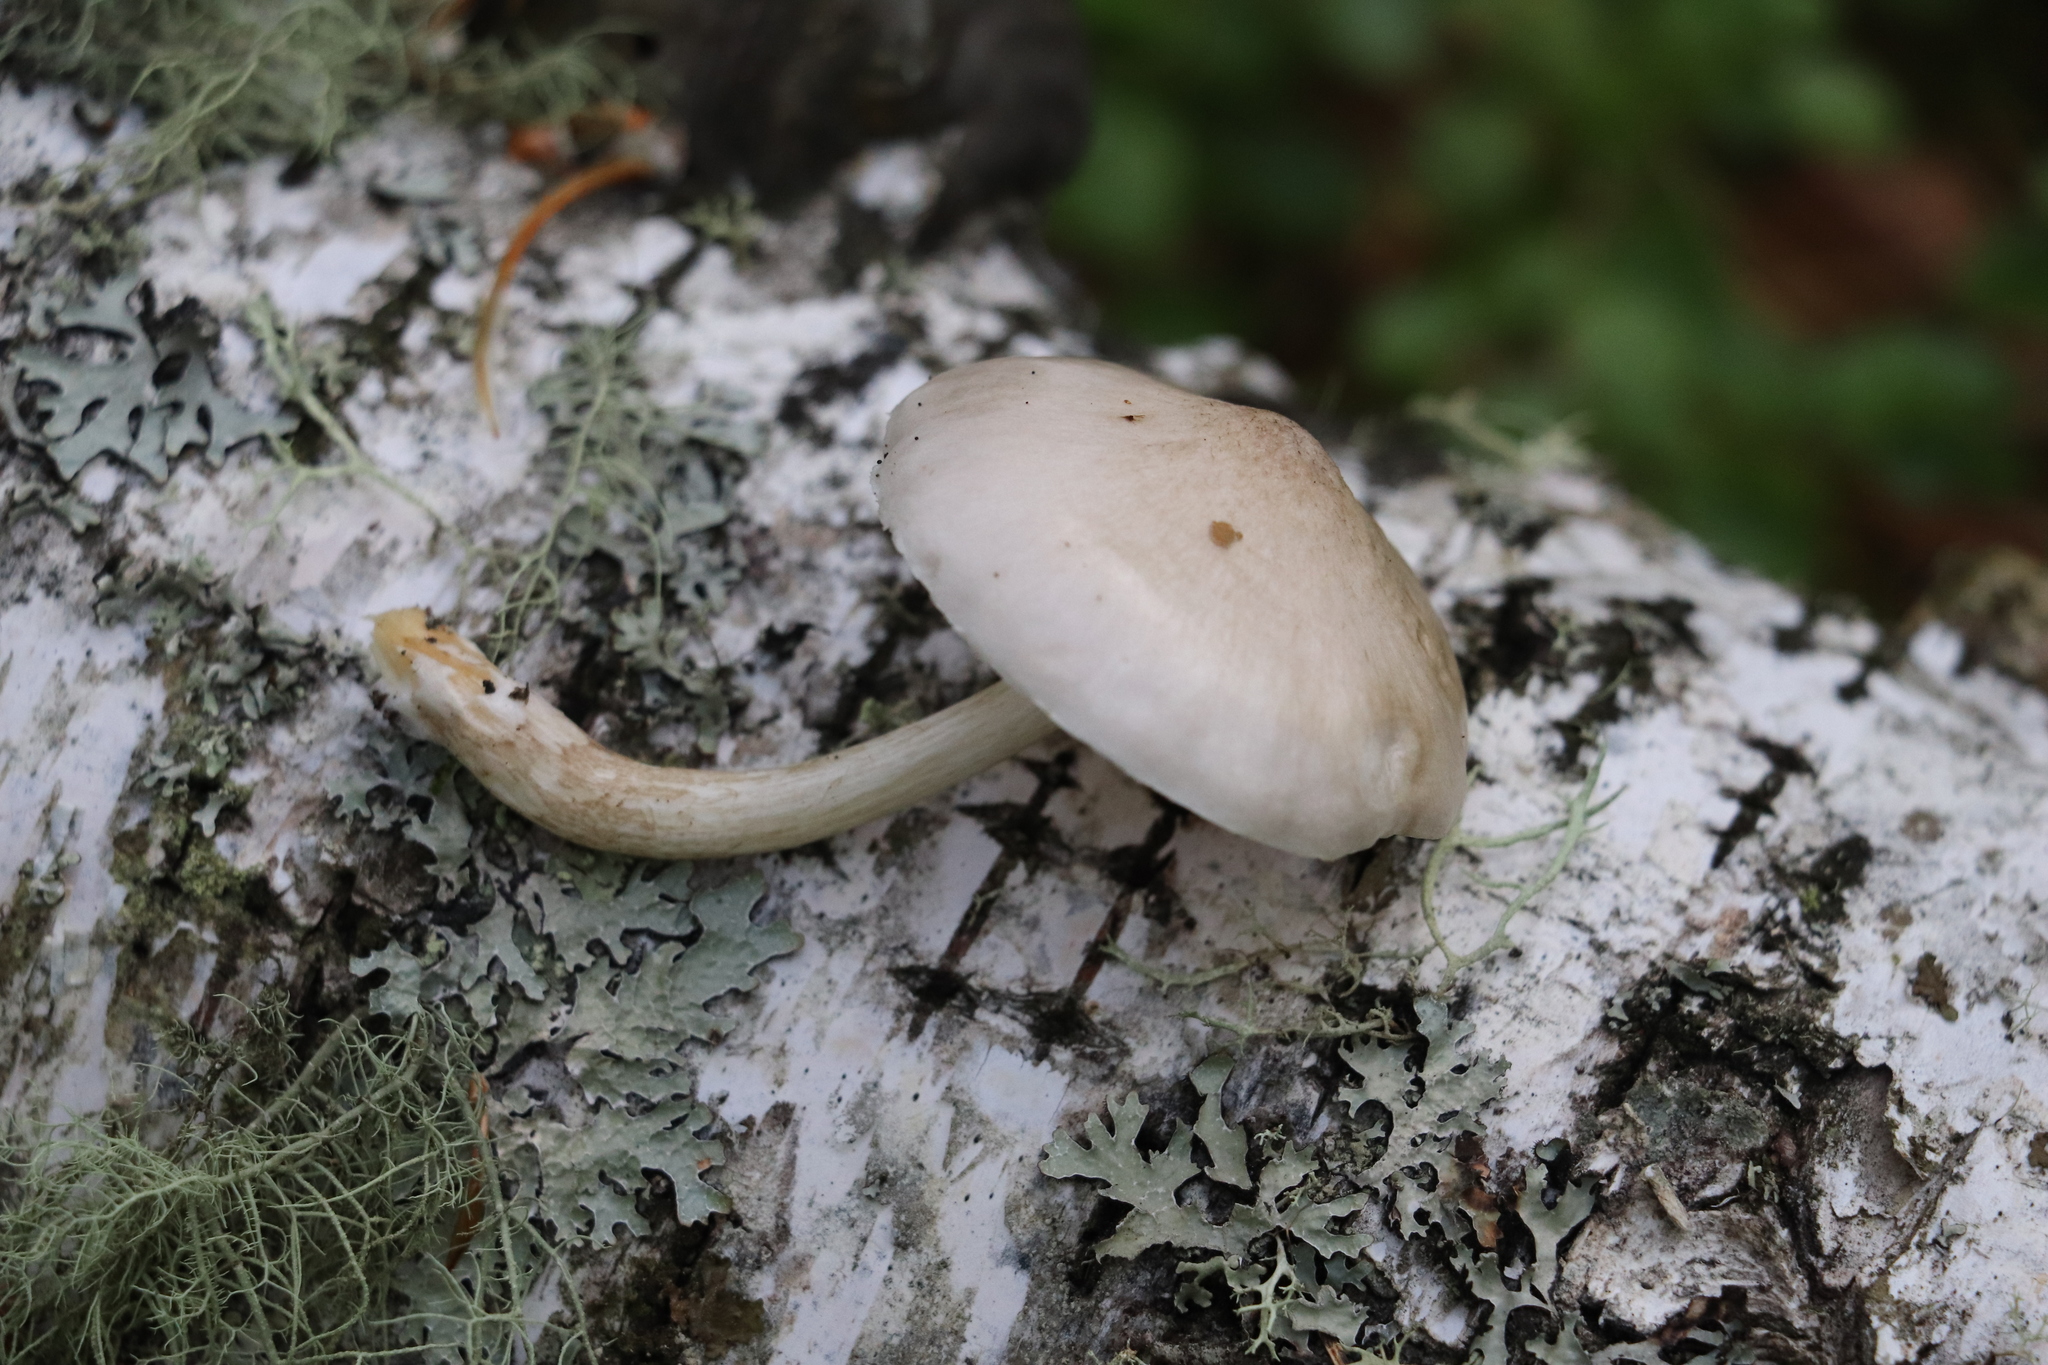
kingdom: Fungi
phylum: Basidiomycota
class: Agaricomycetes
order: Agaricales
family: Pluteaceae
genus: Pluteus
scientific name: Pluteus leucoborealis
